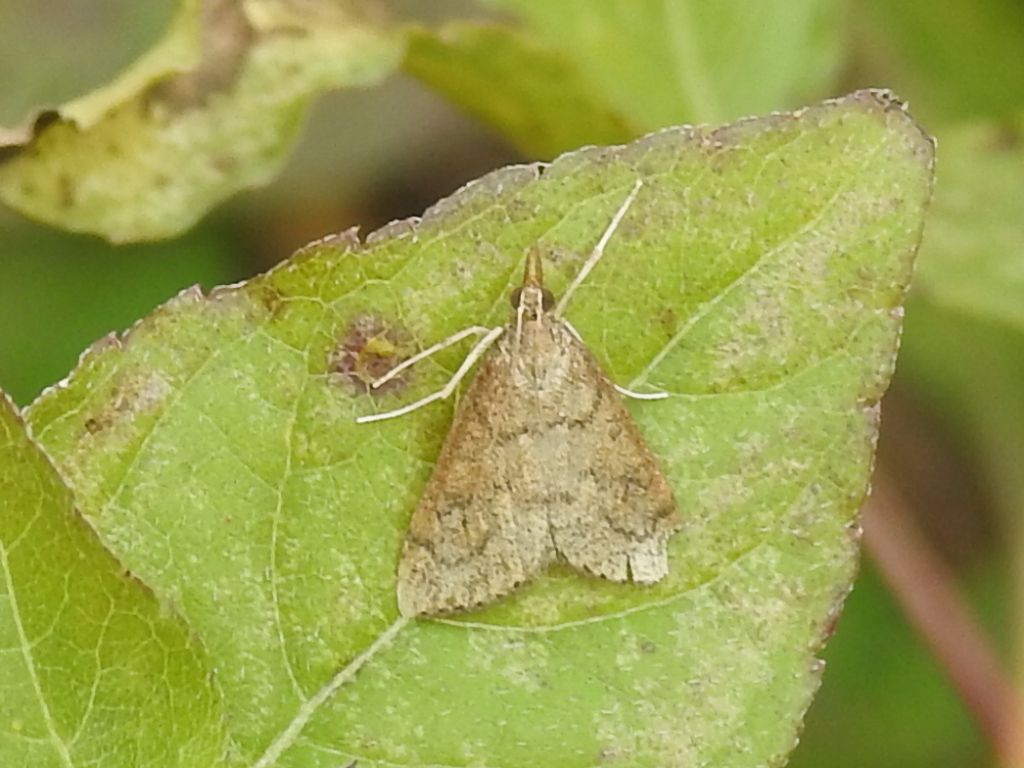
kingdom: Animalia
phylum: Arthropoda
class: Insecta
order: Lepidoptera
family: Crambidae
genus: Udea
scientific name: Udea rubigalis
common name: Celery leaftier moth
